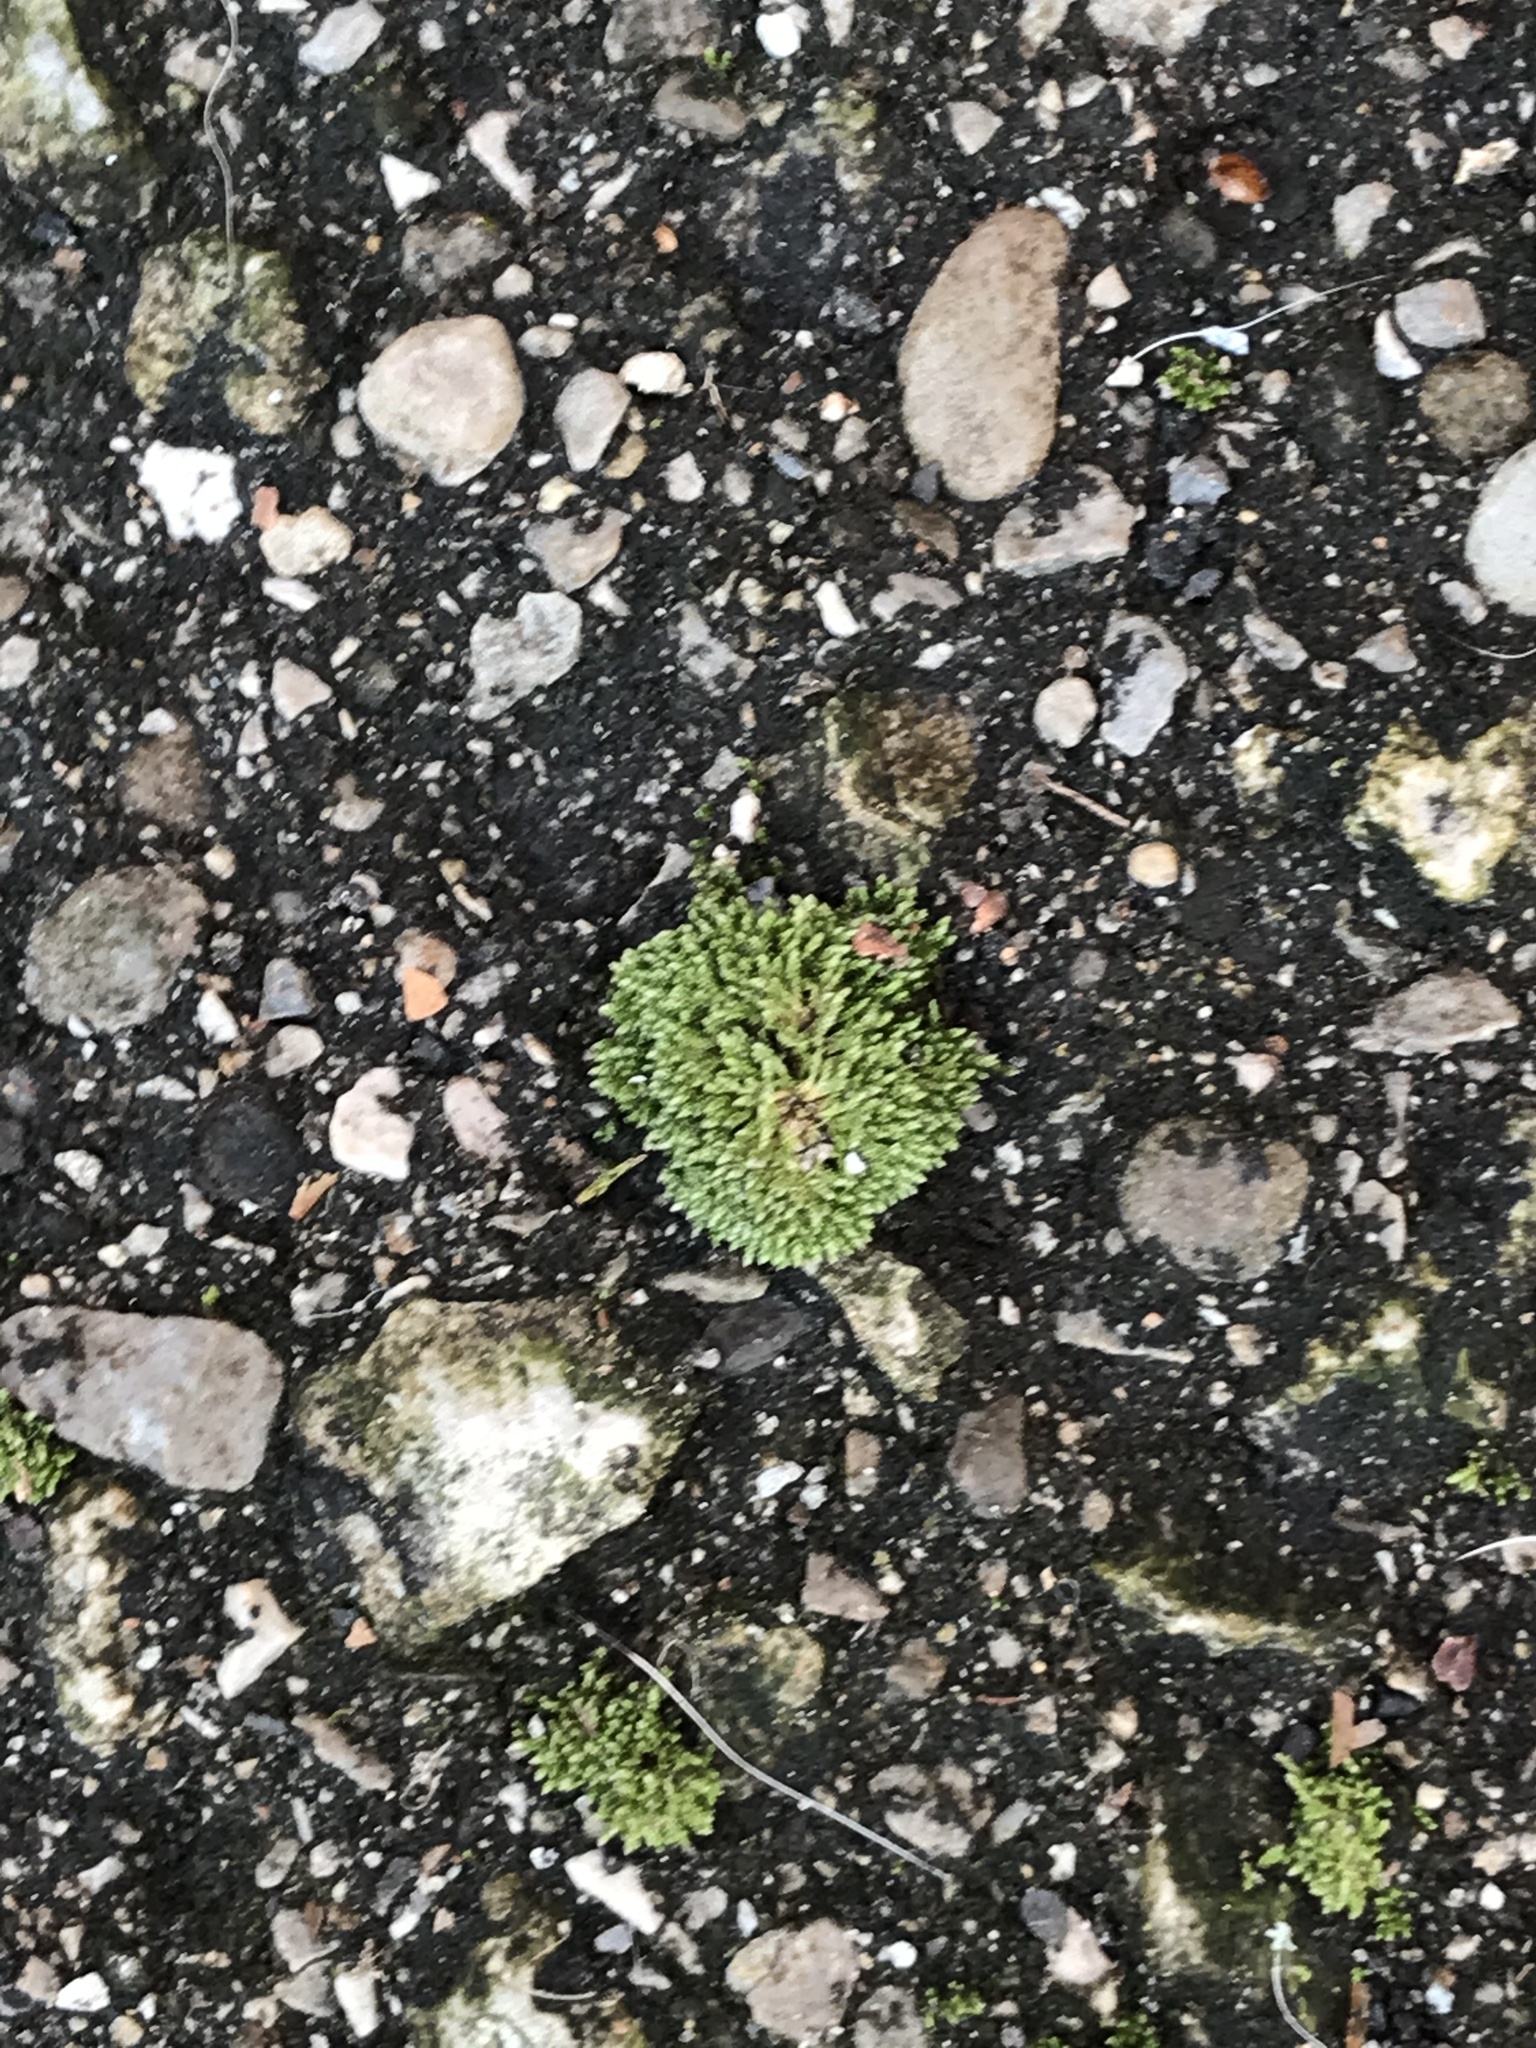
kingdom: Plantae
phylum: Bryophyta
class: Bryopsida
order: Bryales
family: Bryaceae
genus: Bryum
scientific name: Bryum argenteum
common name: Silver-moss
